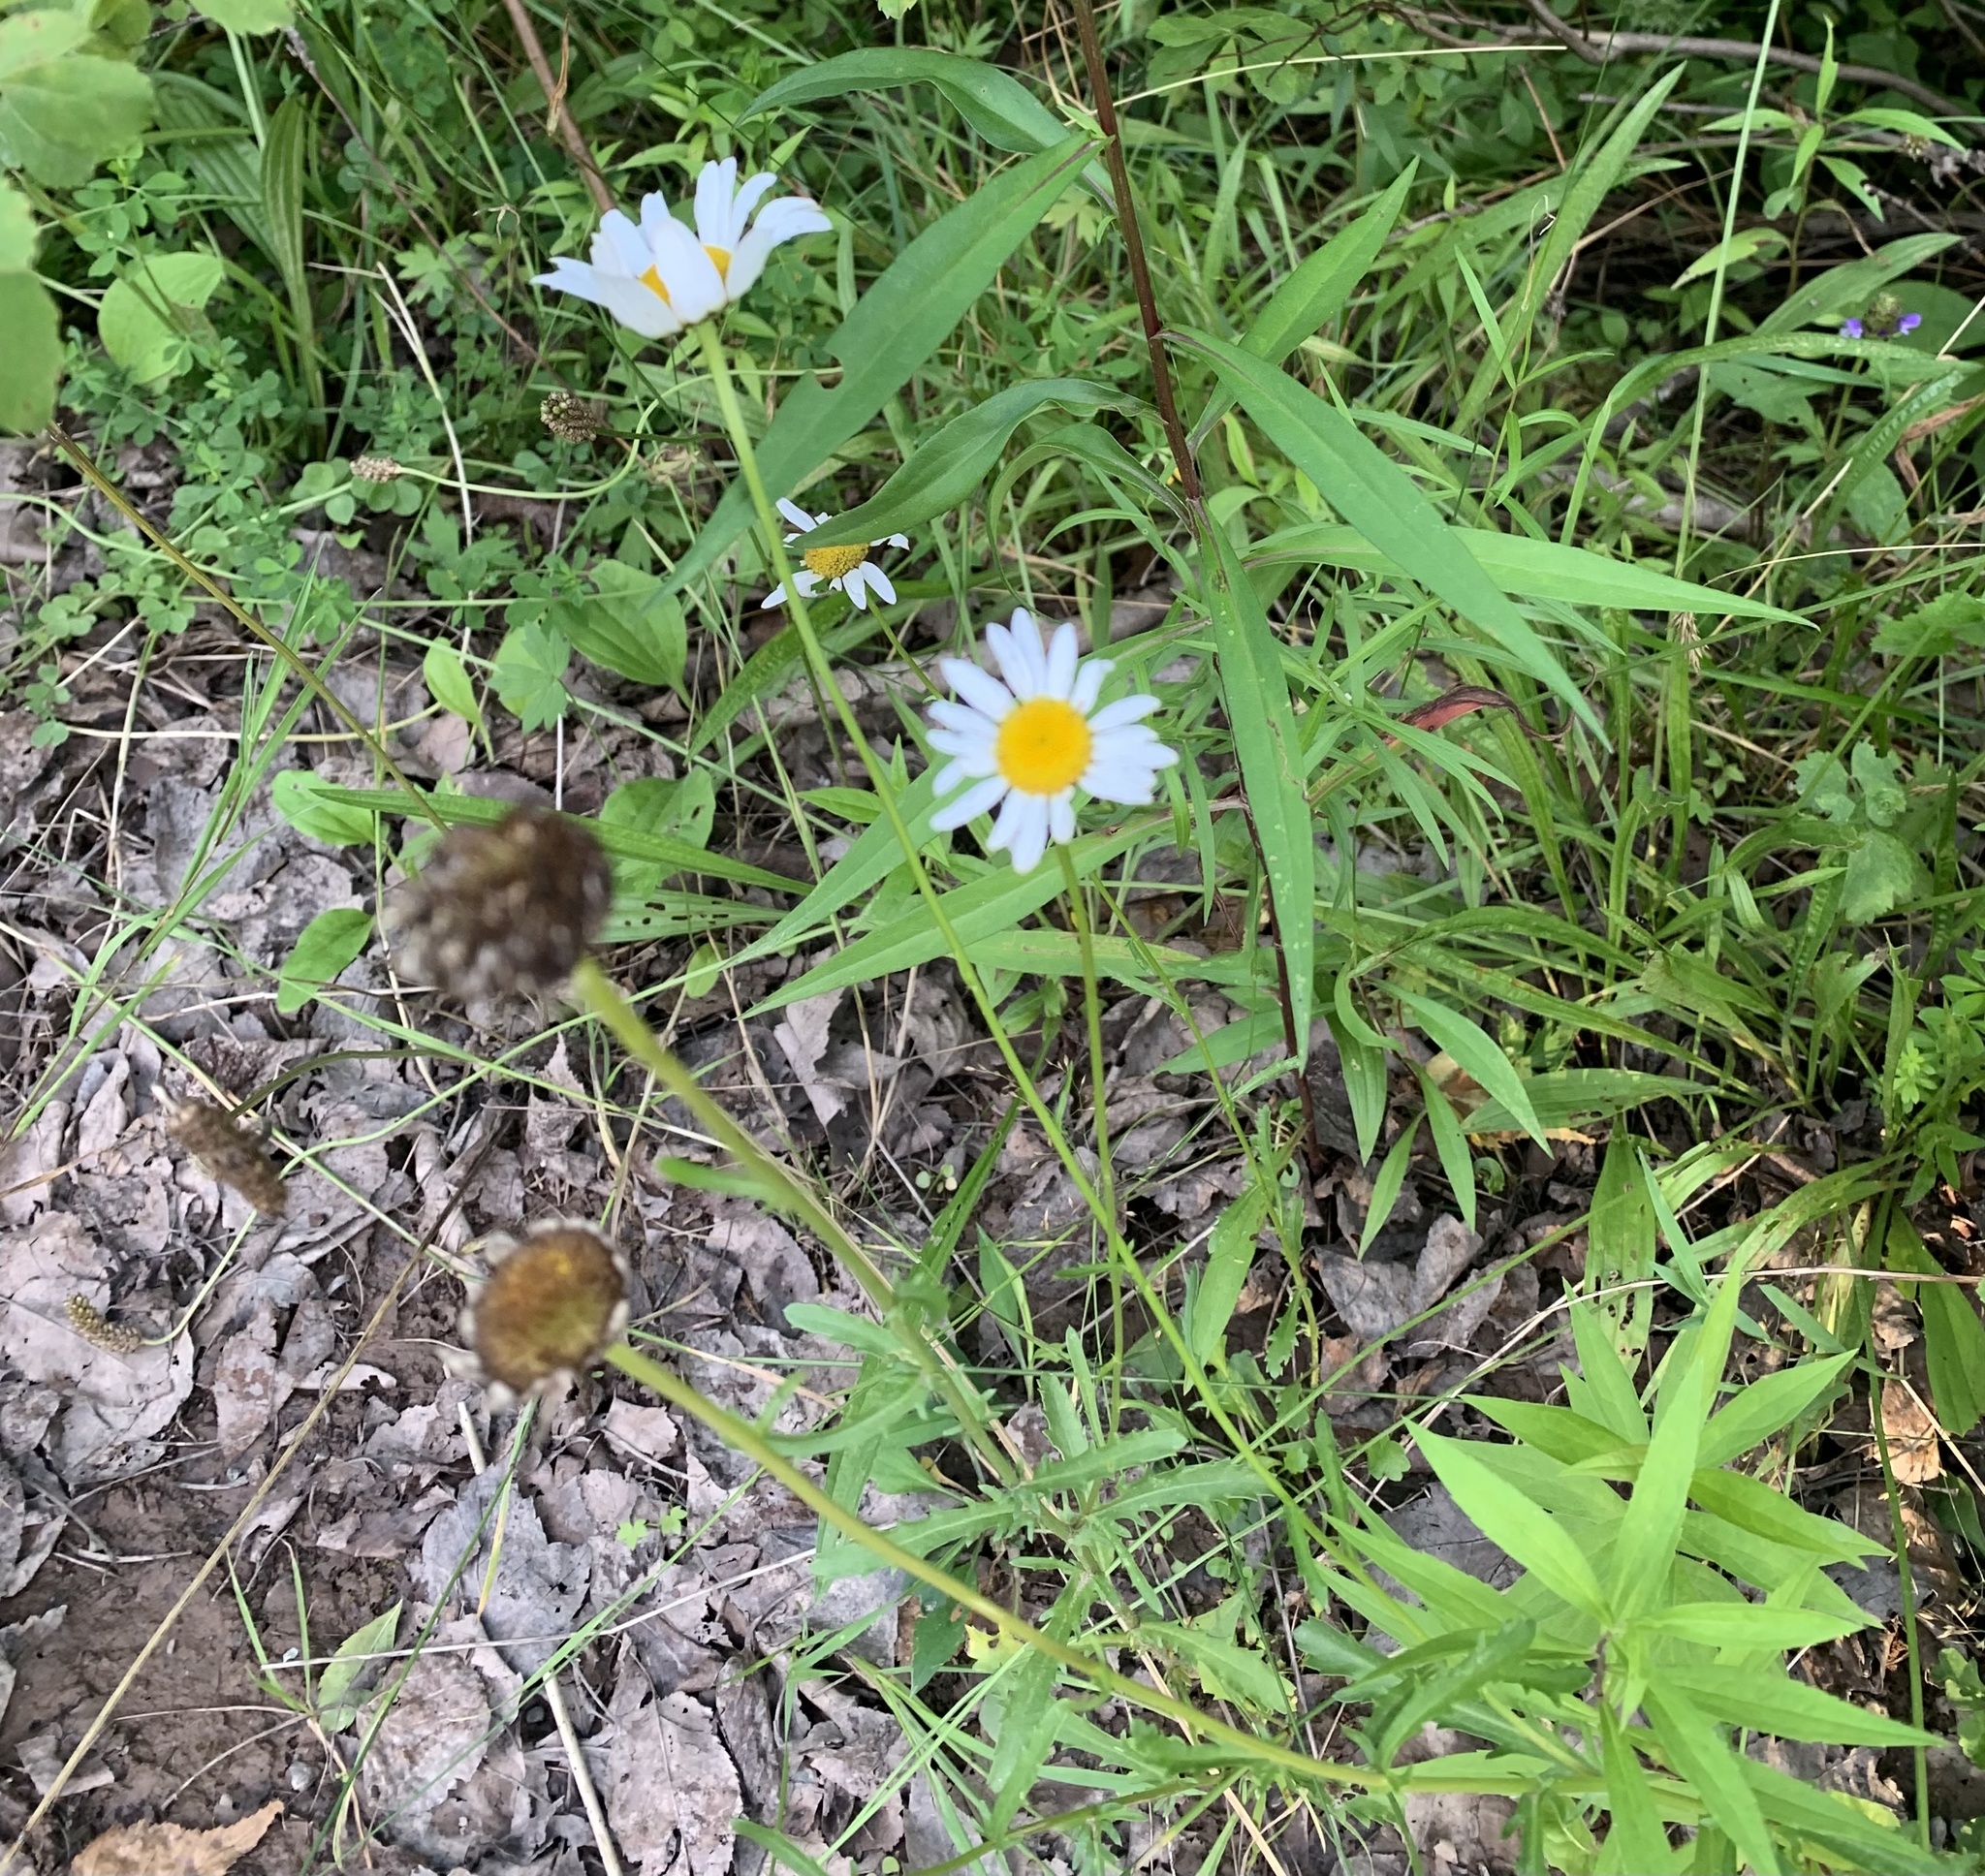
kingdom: Plantae
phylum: Tracheophyta
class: Magnoliopsida
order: Asterales
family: Asteraceae
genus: Leucanthemum
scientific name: Leucanthemum vulgare
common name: Oxeye daisy
